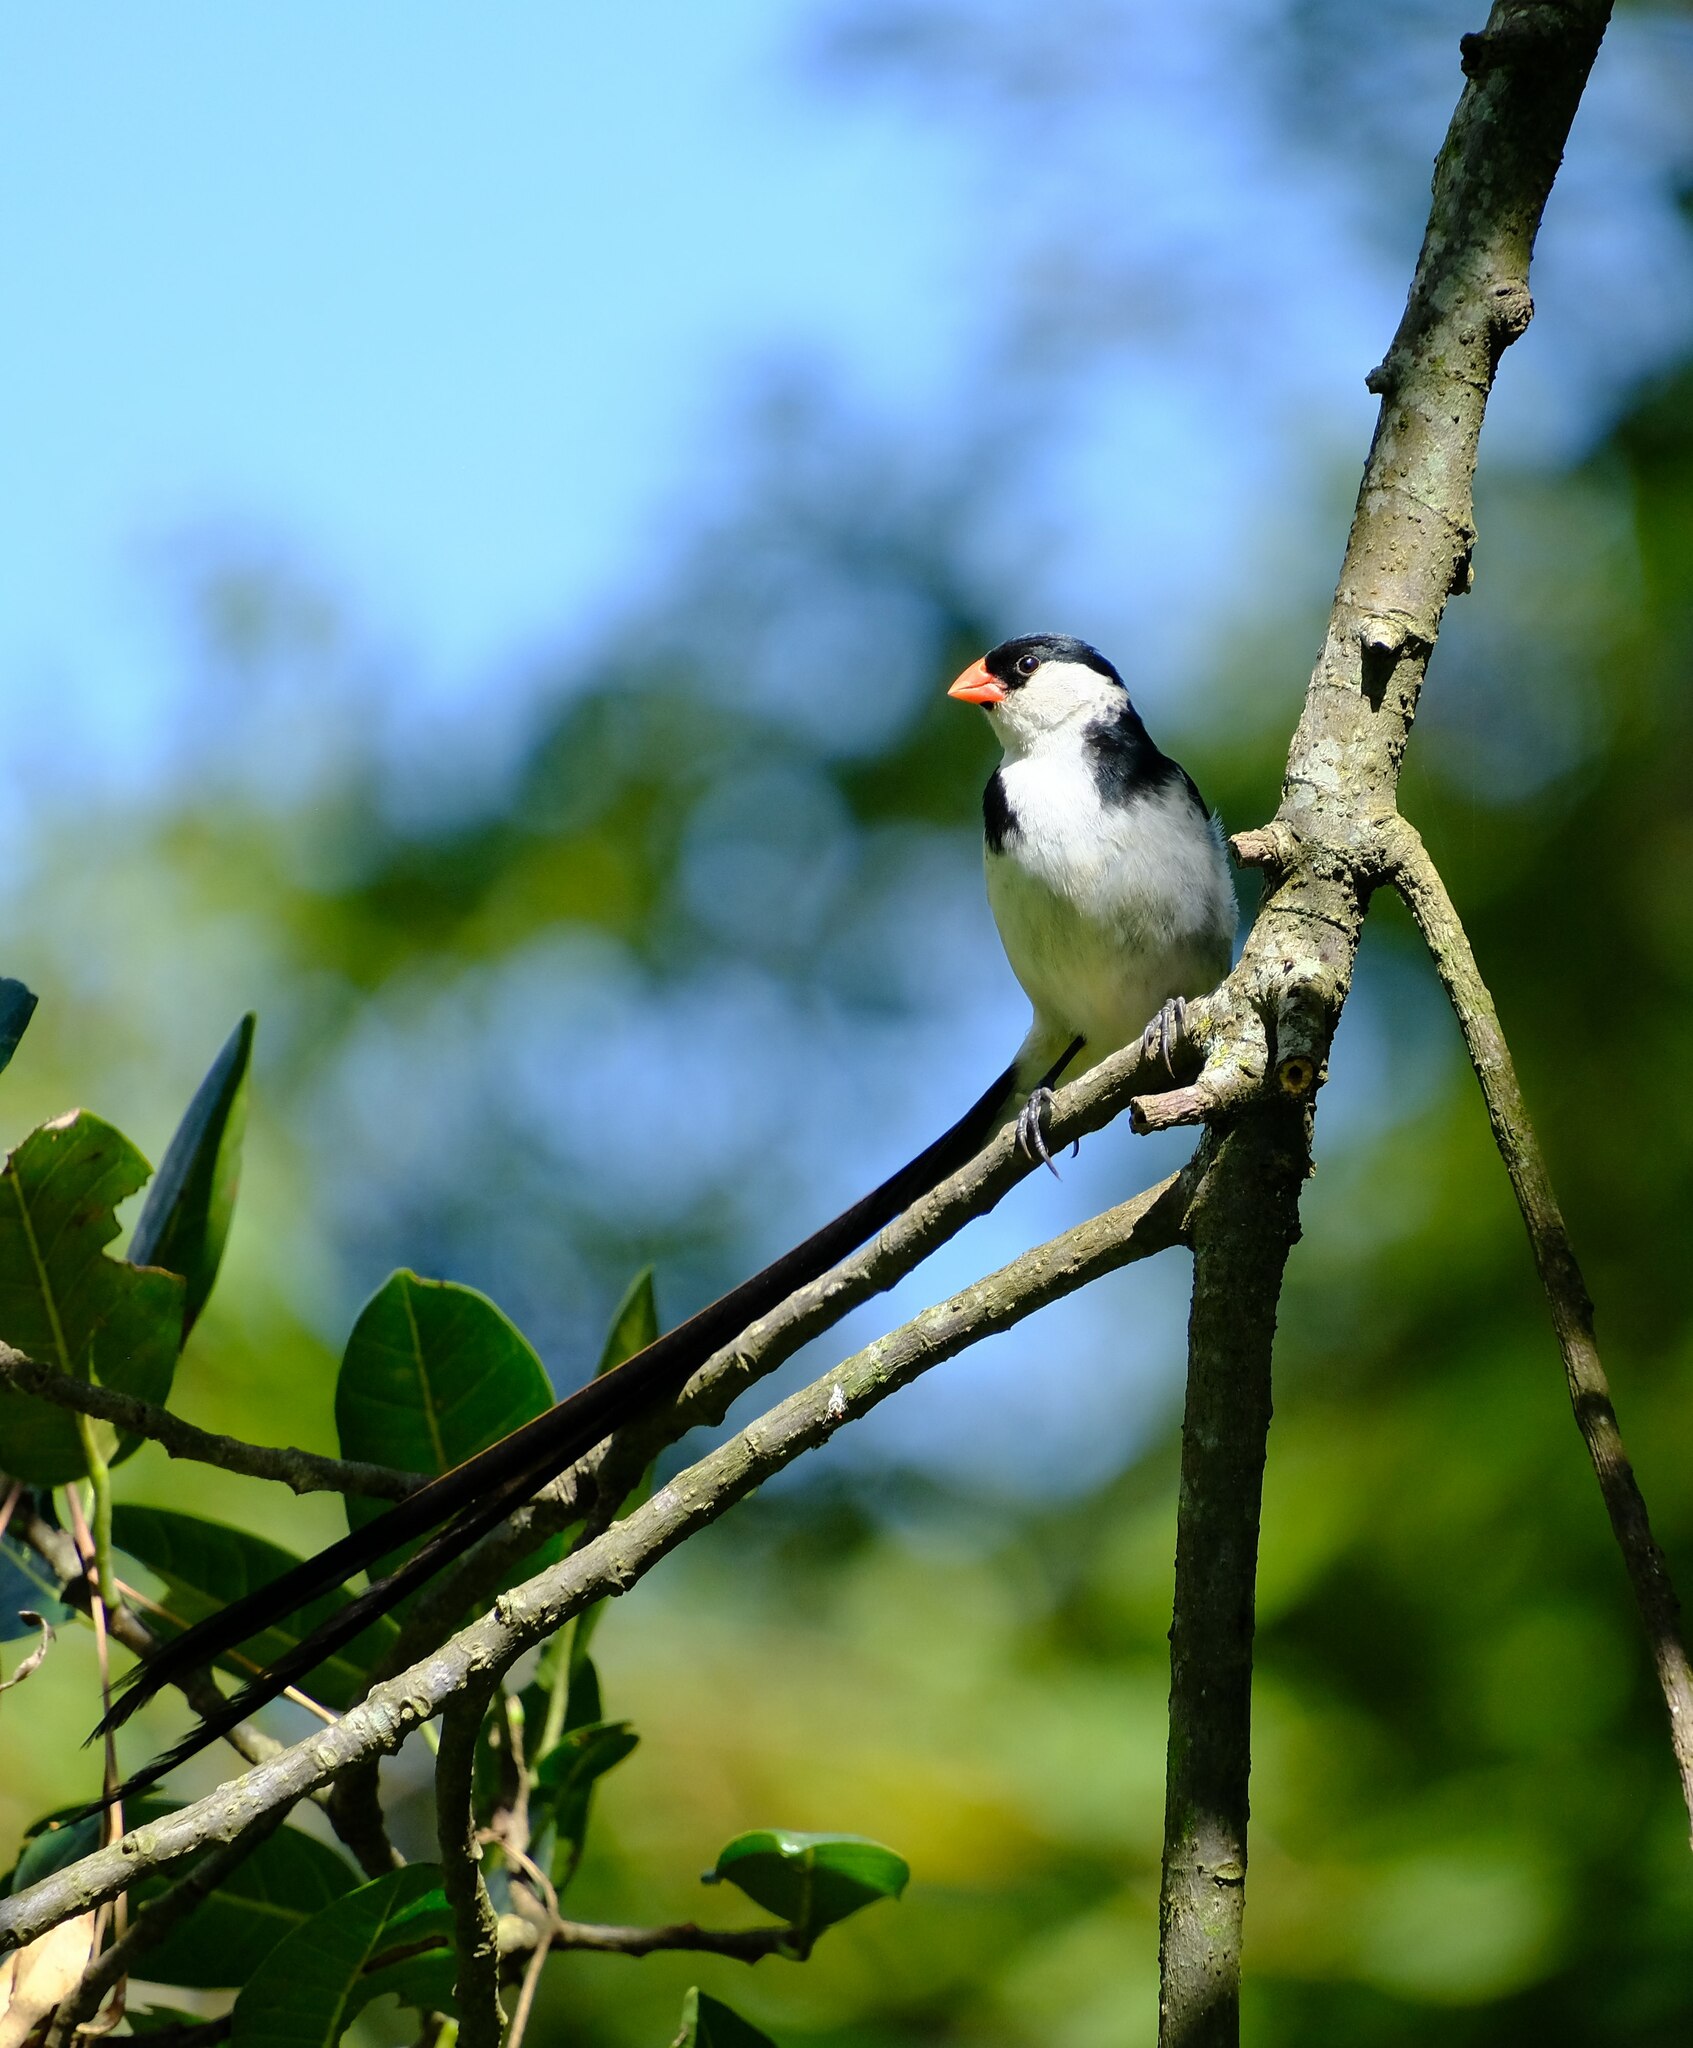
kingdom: Animalia
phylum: Chordata
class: Aves
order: Passeriformes
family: Viduidae
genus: Vidua
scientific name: Vidua macroura
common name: Pin-tailed whydah
